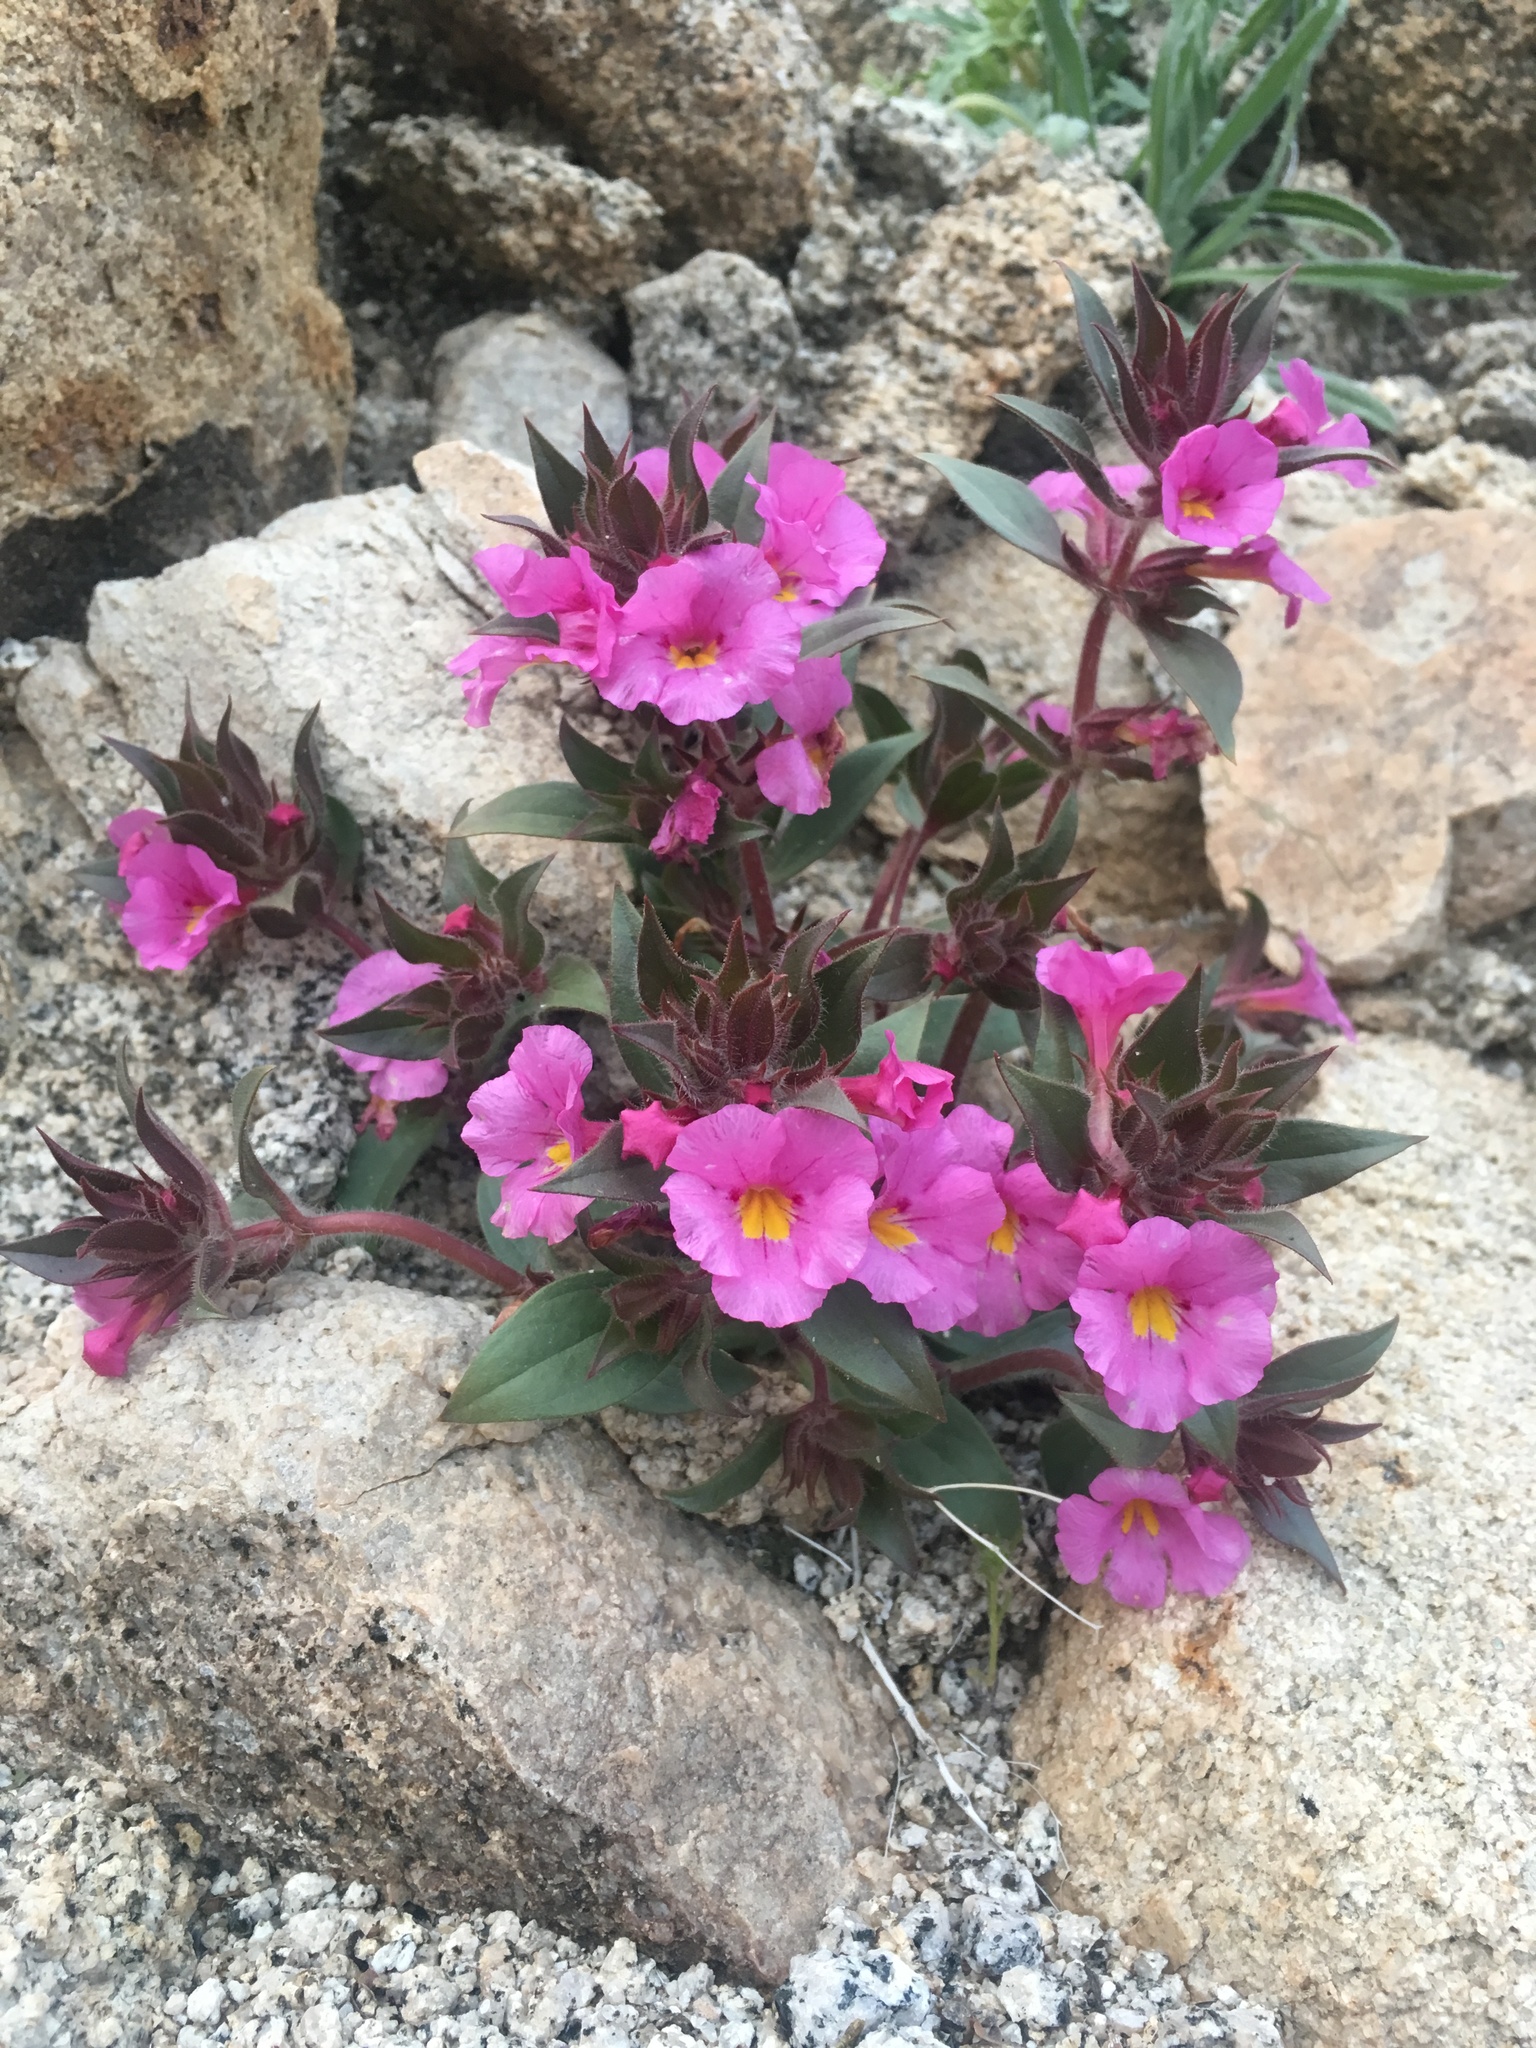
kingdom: Plantae
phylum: Tracheophyta
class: Magnoliopsida
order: Lamiales
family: Phrymaceae
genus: Diplacus
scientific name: Diplacus bigelovii
